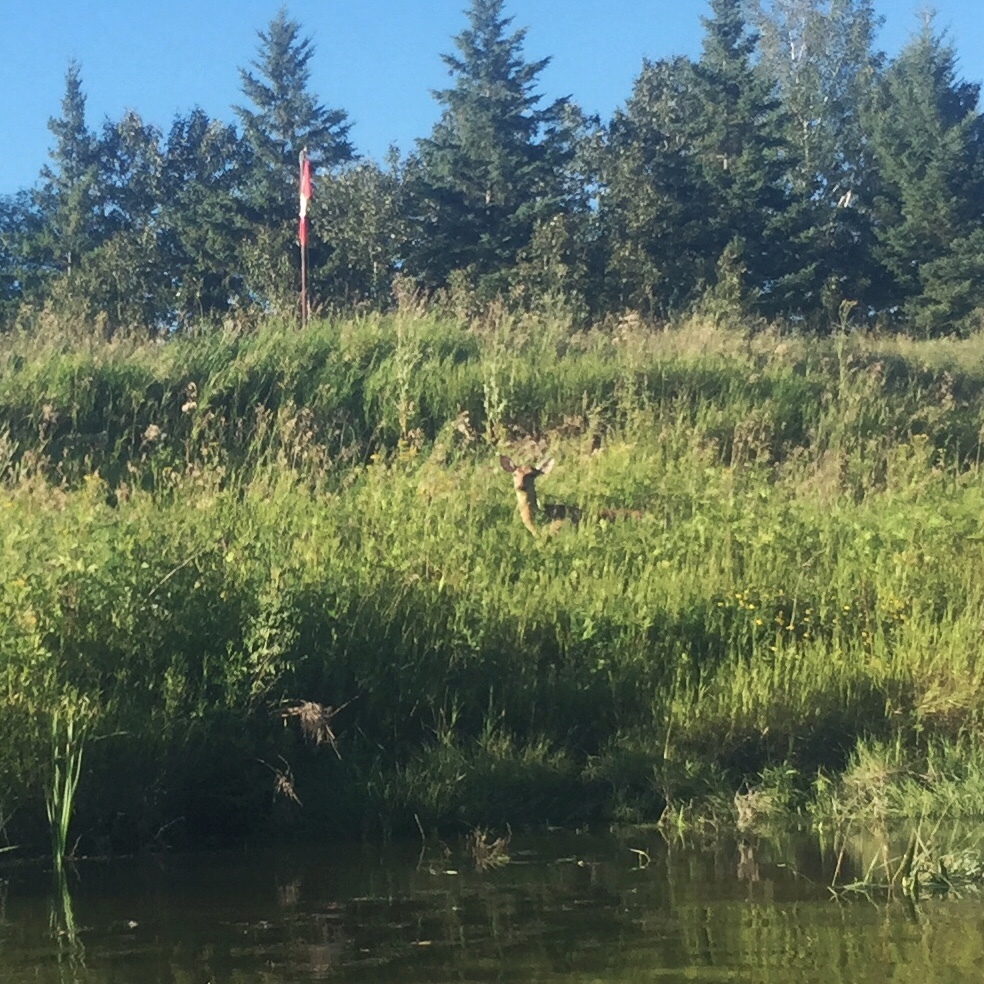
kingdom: Animalia
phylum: Chordata
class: Mammalia
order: Artiodactyla
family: Cervidae
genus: Odocoileus
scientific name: Odocoileus virginianus
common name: White-tailed deer
